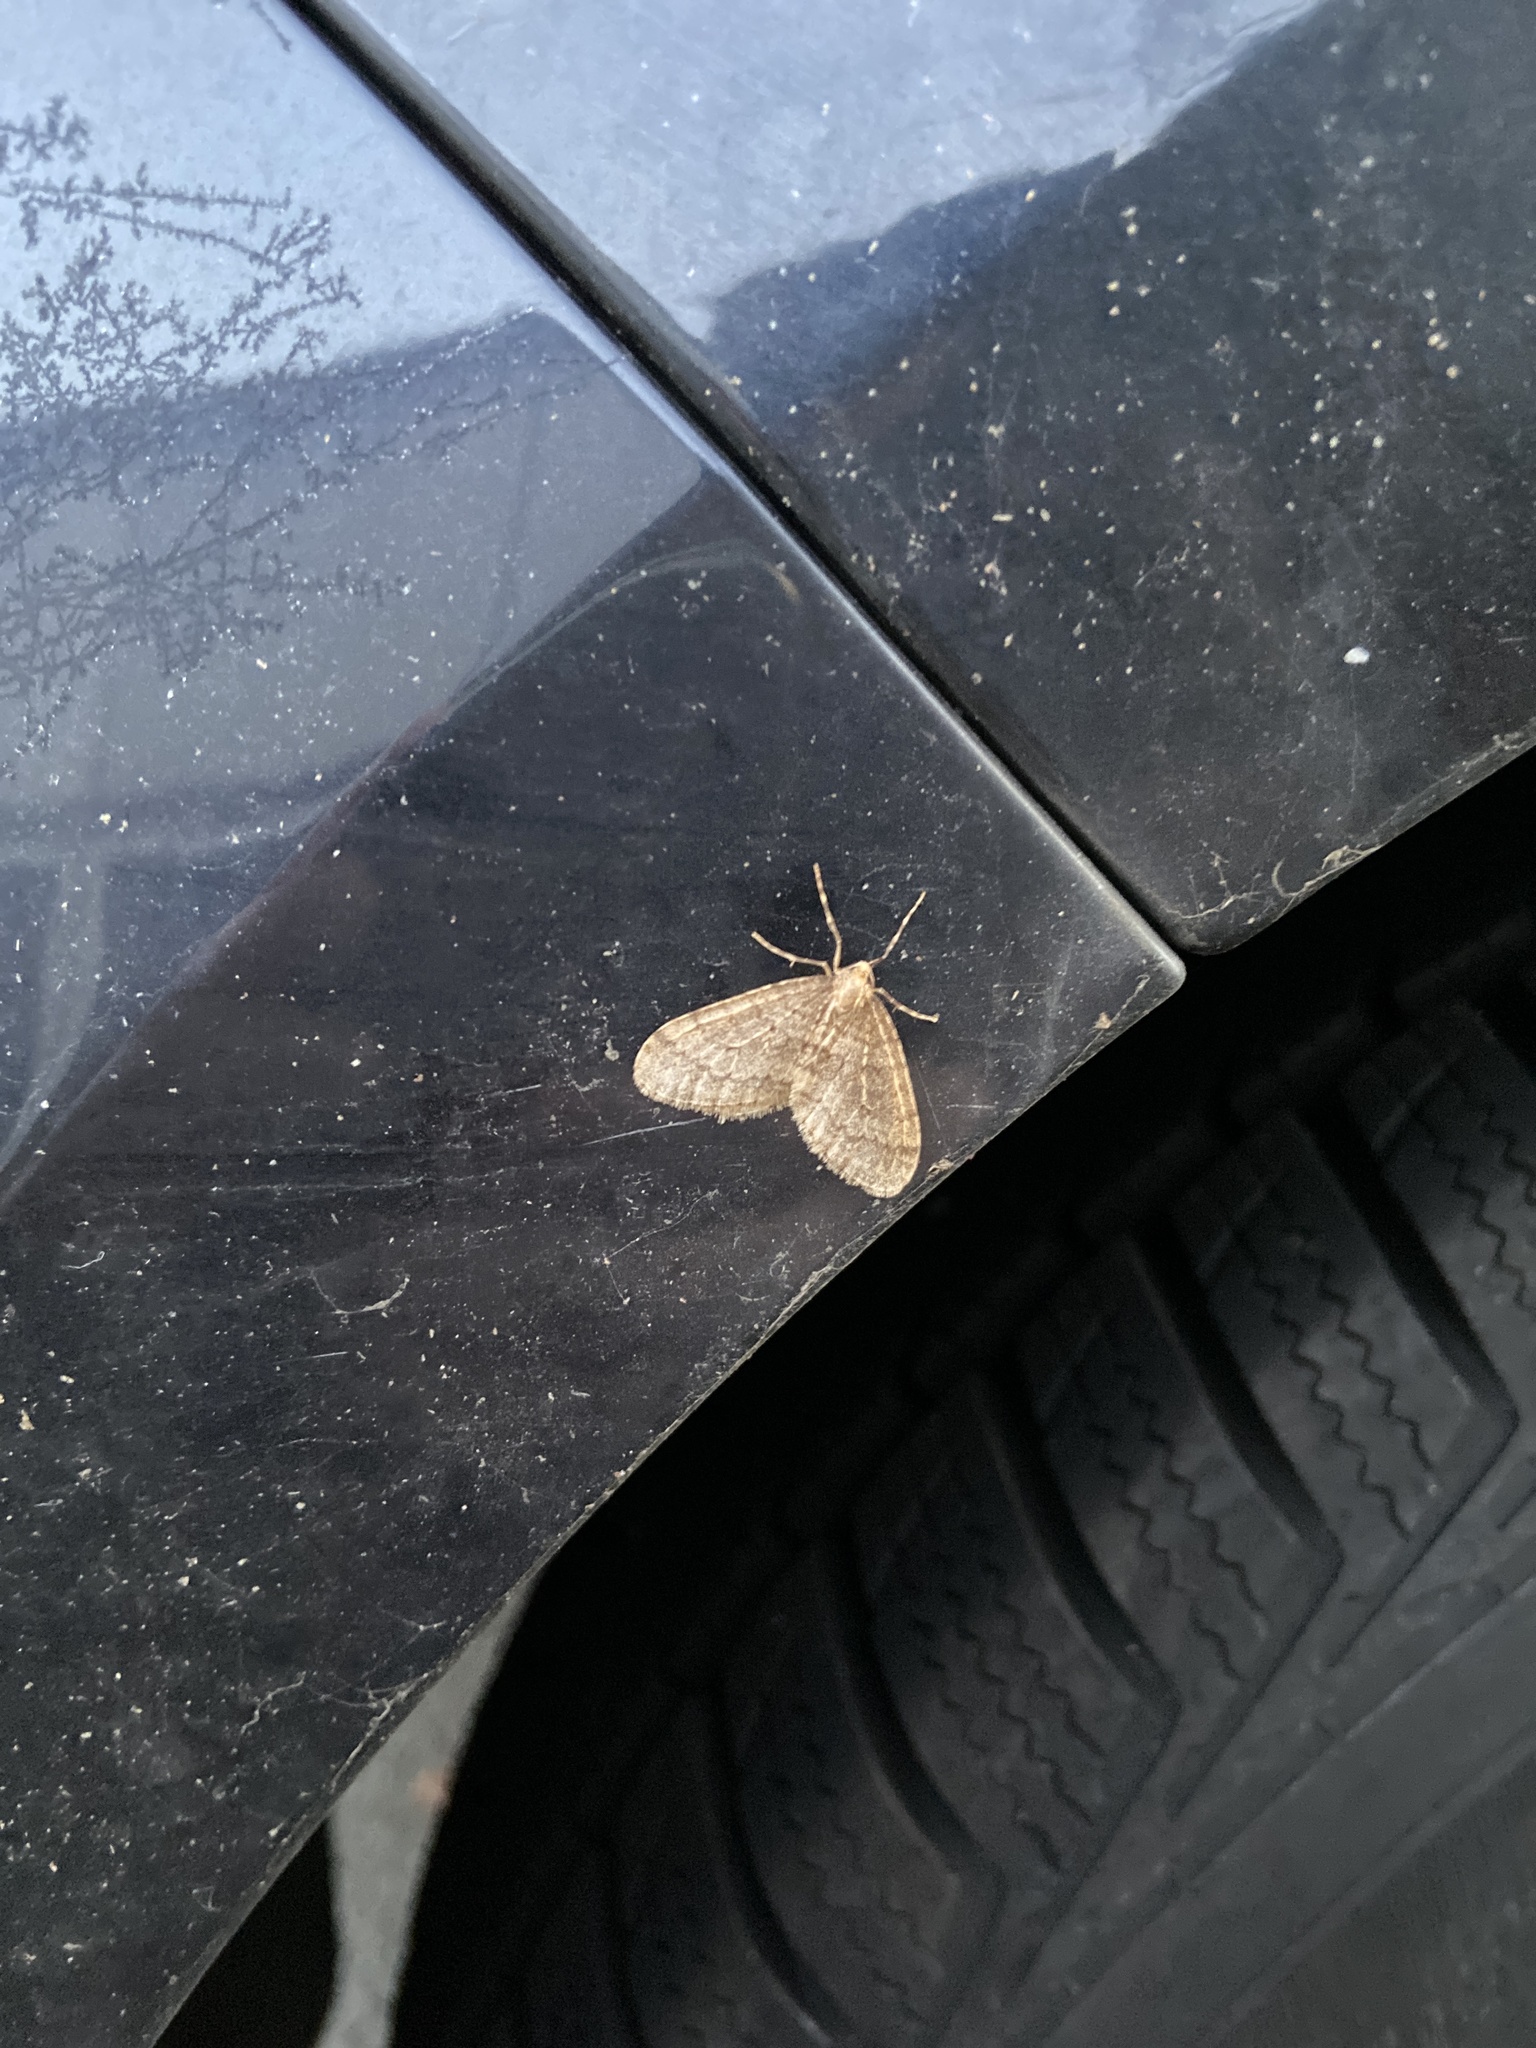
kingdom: Animalia
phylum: Arthropoda
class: Insecta
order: Lepidoptera
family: Geometridae
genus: Operophtera
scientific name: Operophtera brumata
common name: Winter moth
